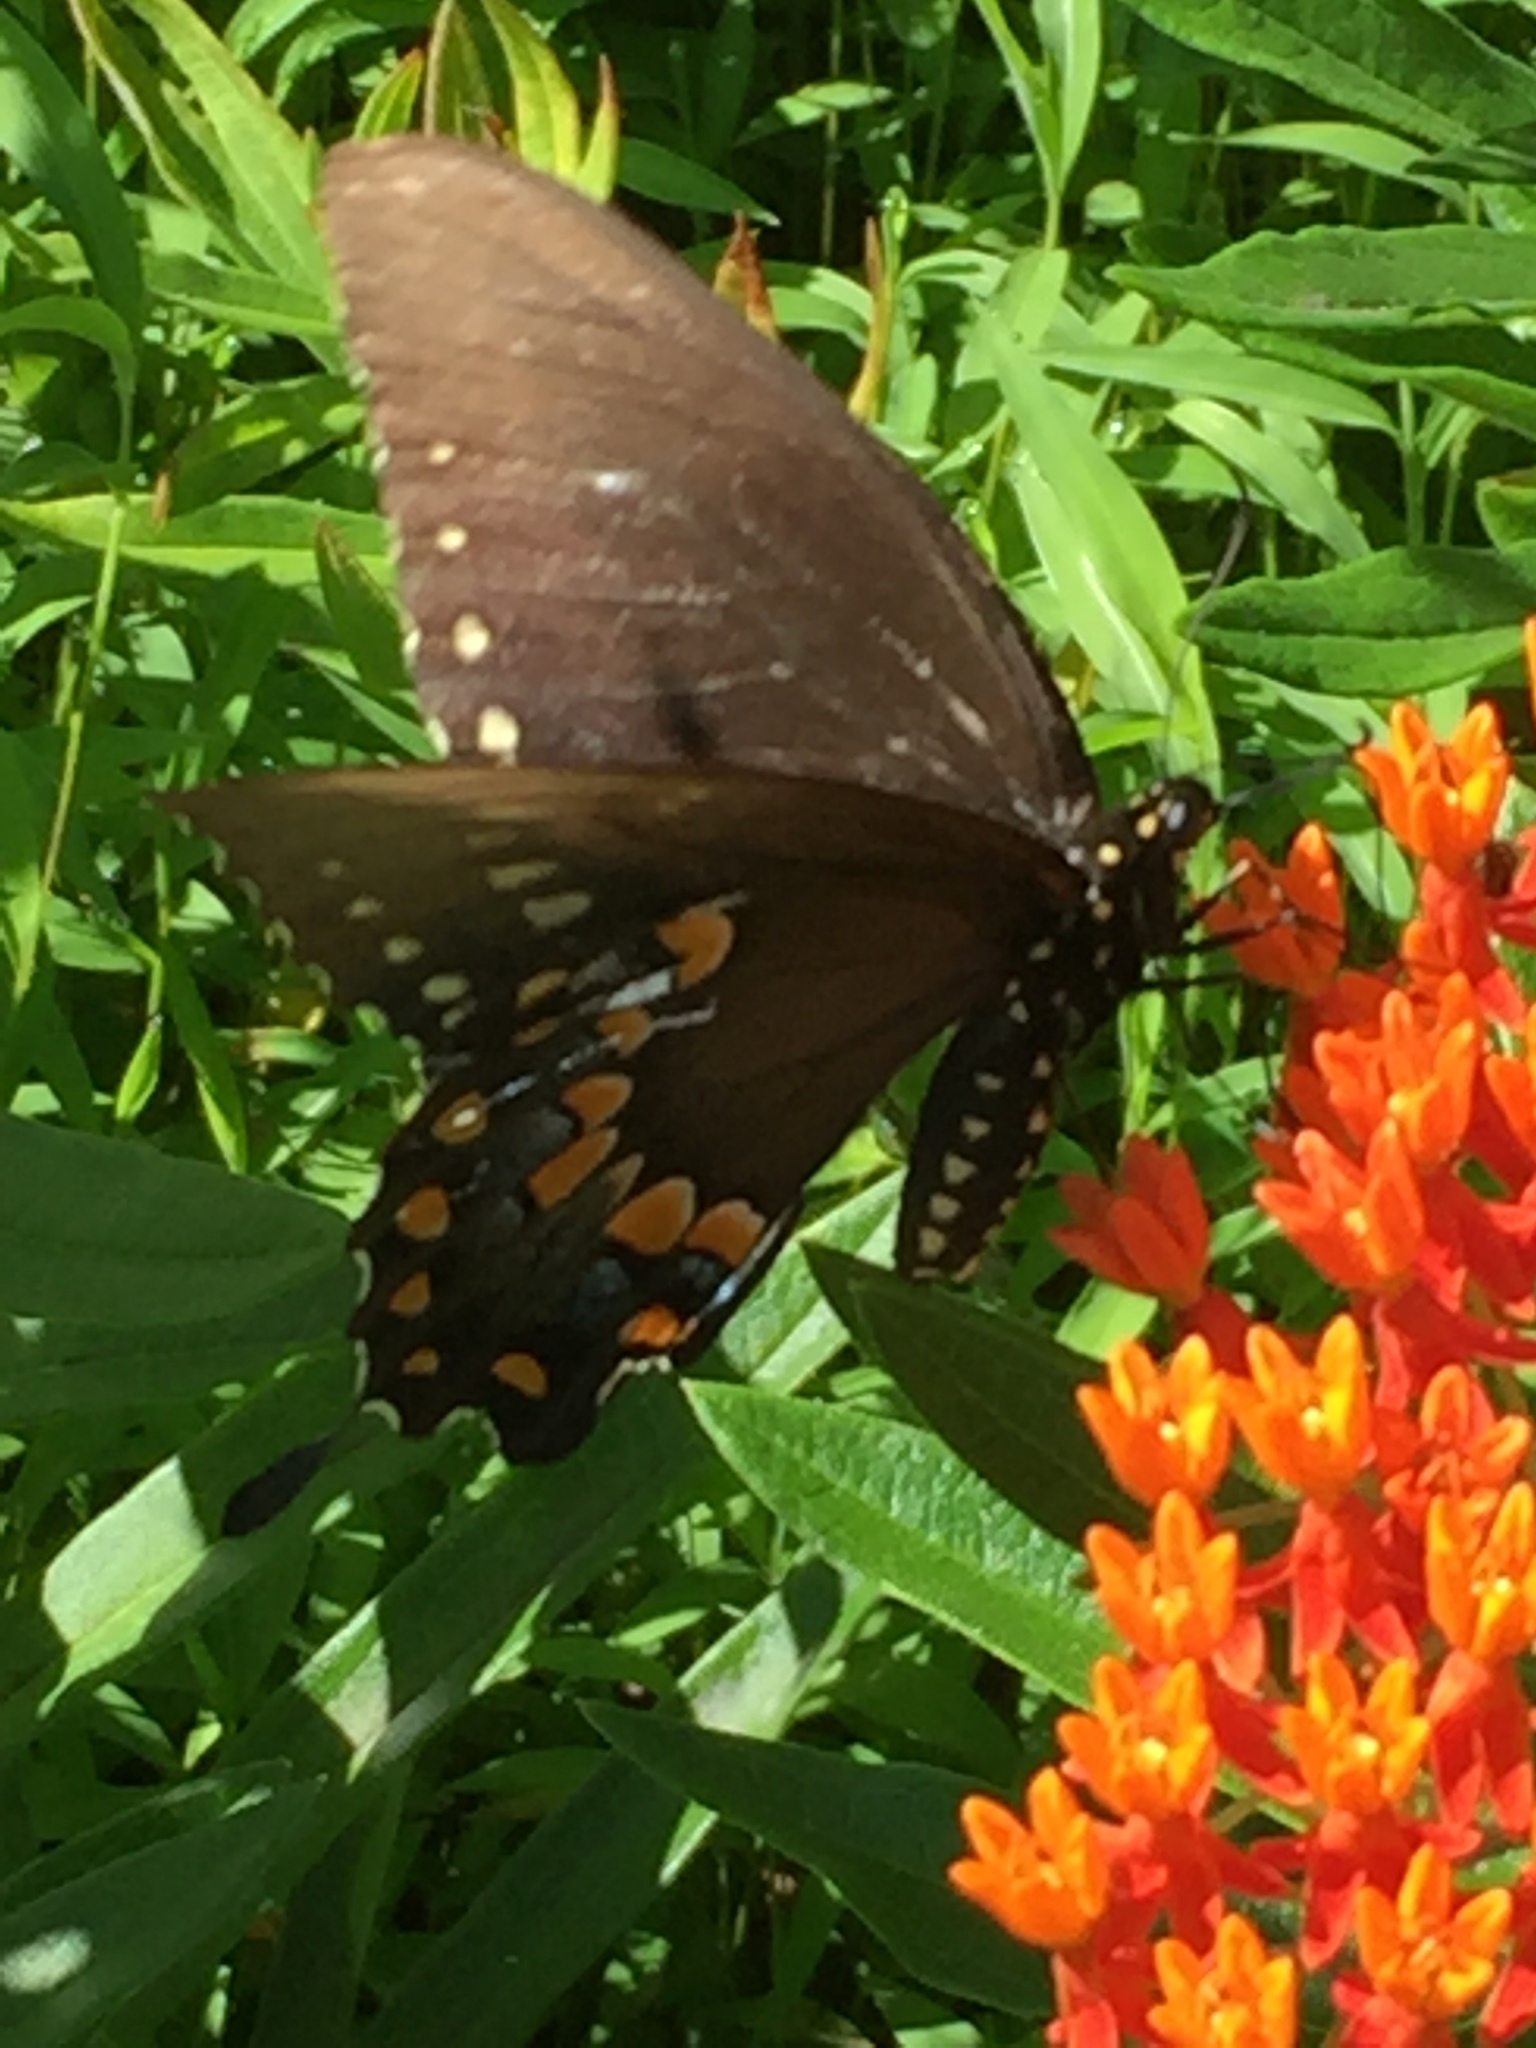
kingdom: Animalia
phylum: Arthropoda
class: Insecta
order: Lepidoptera
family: Papilionidae
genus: Papilio
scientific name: Papilio troilus
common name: Spicebush swallowtail
